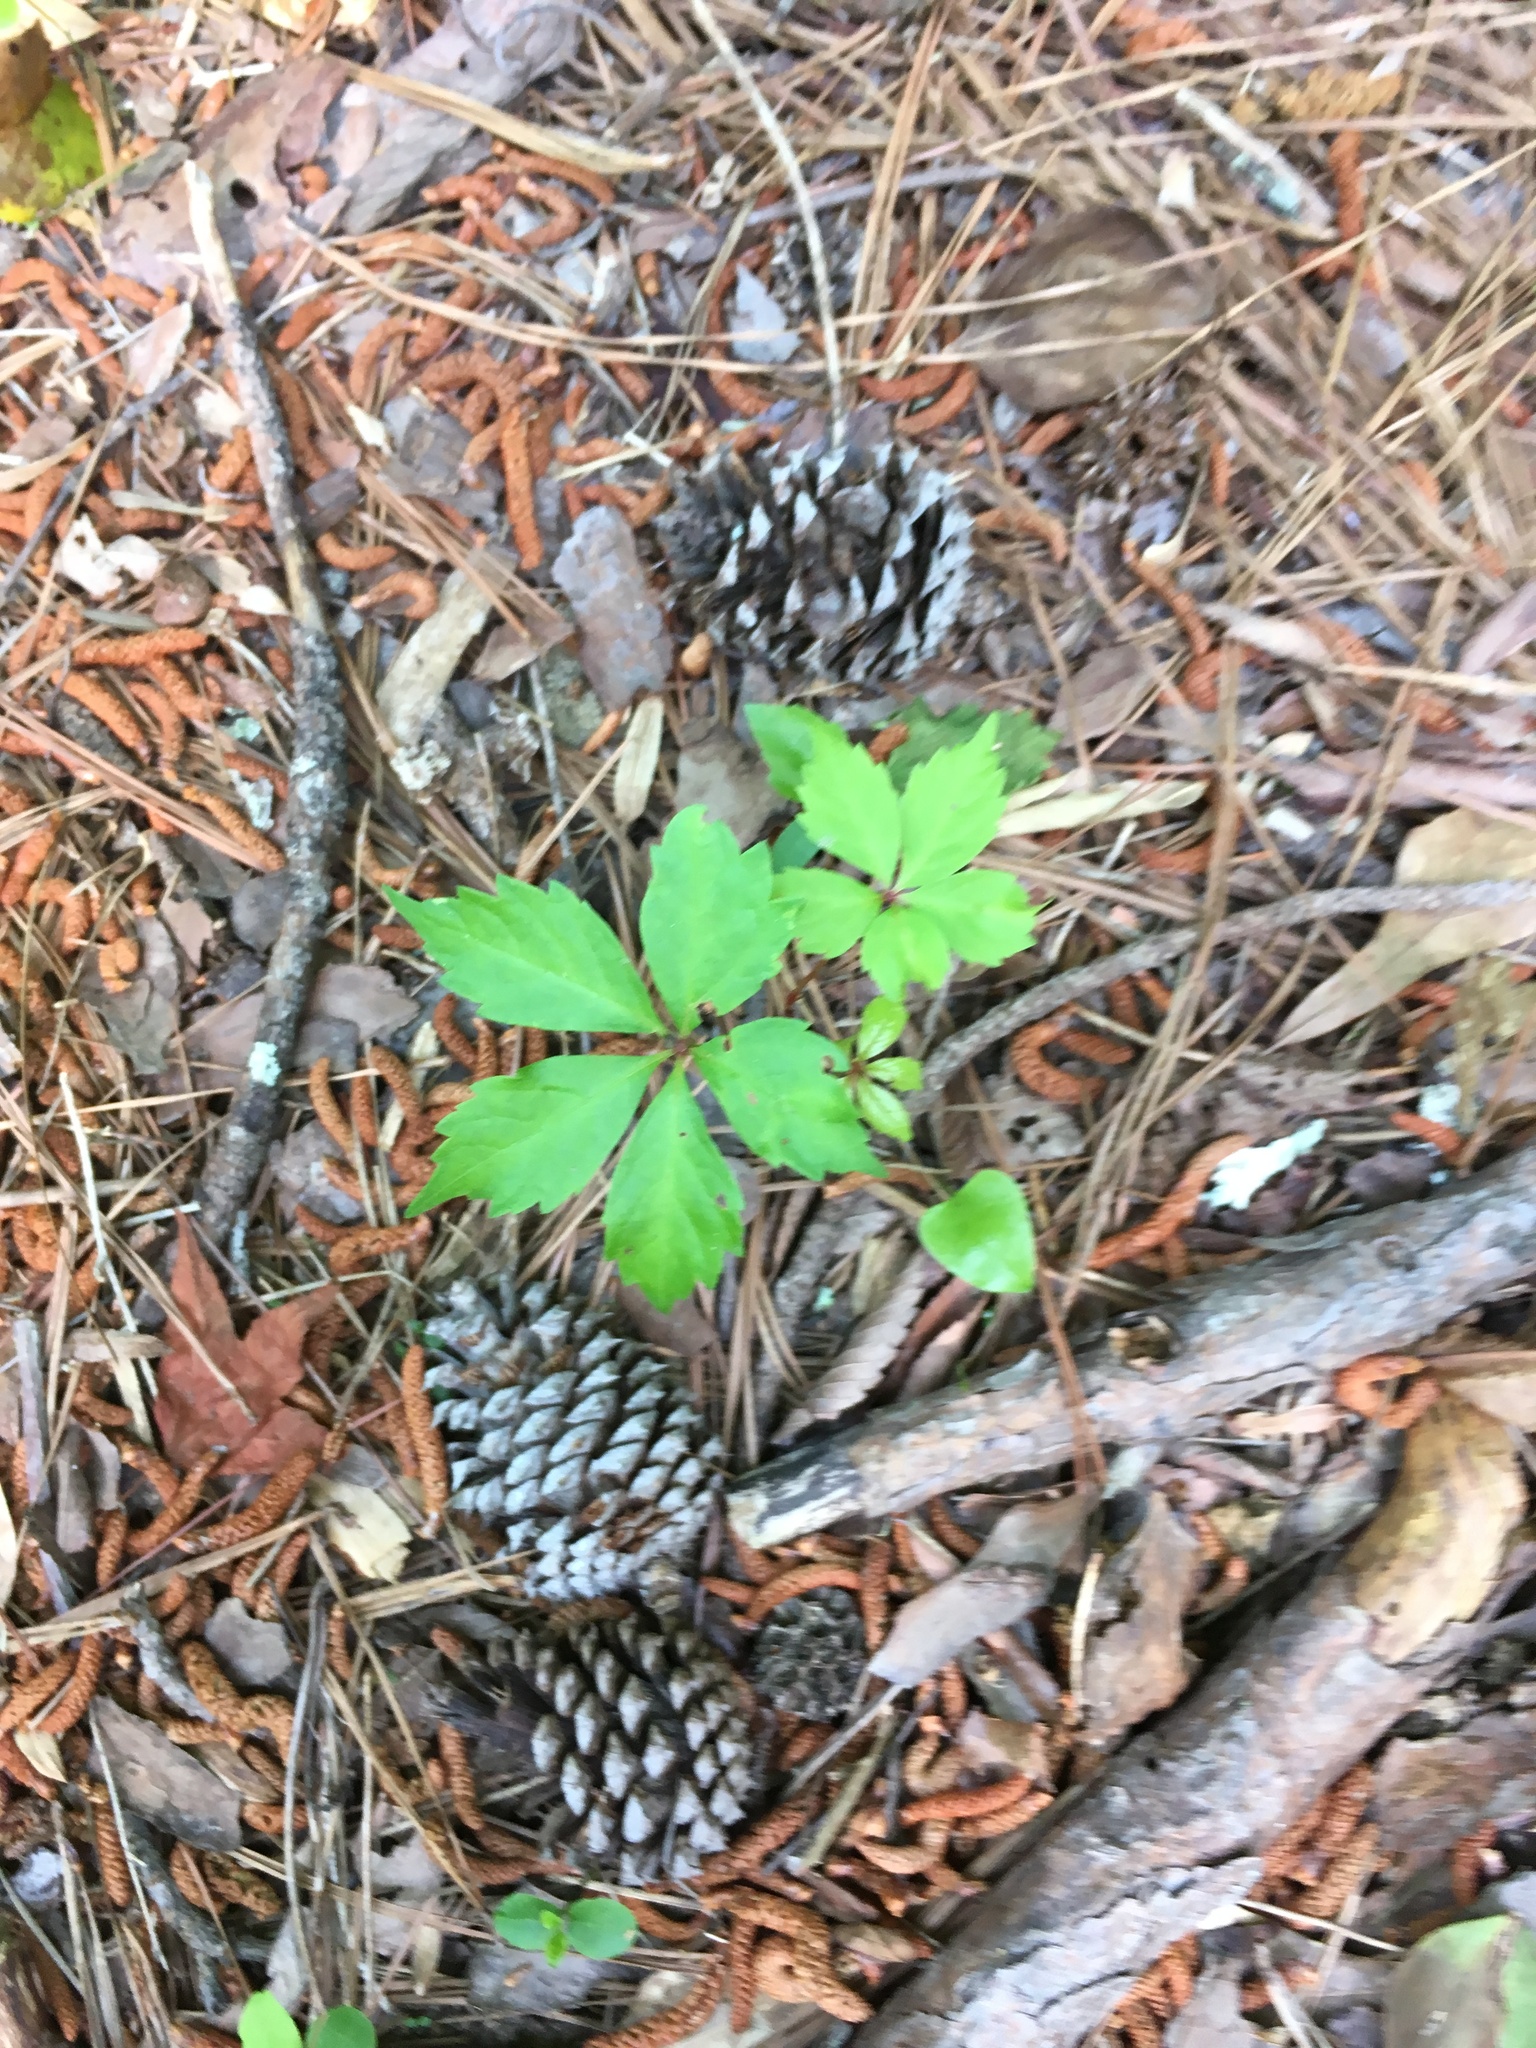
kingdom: Plantae
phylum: Tracheophyta
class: Magnoliopsida
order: Vitales
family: Vitaceae
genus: Parthenocissus
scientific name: Parthenocissus quinquefolia
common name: Virginia-creeper
